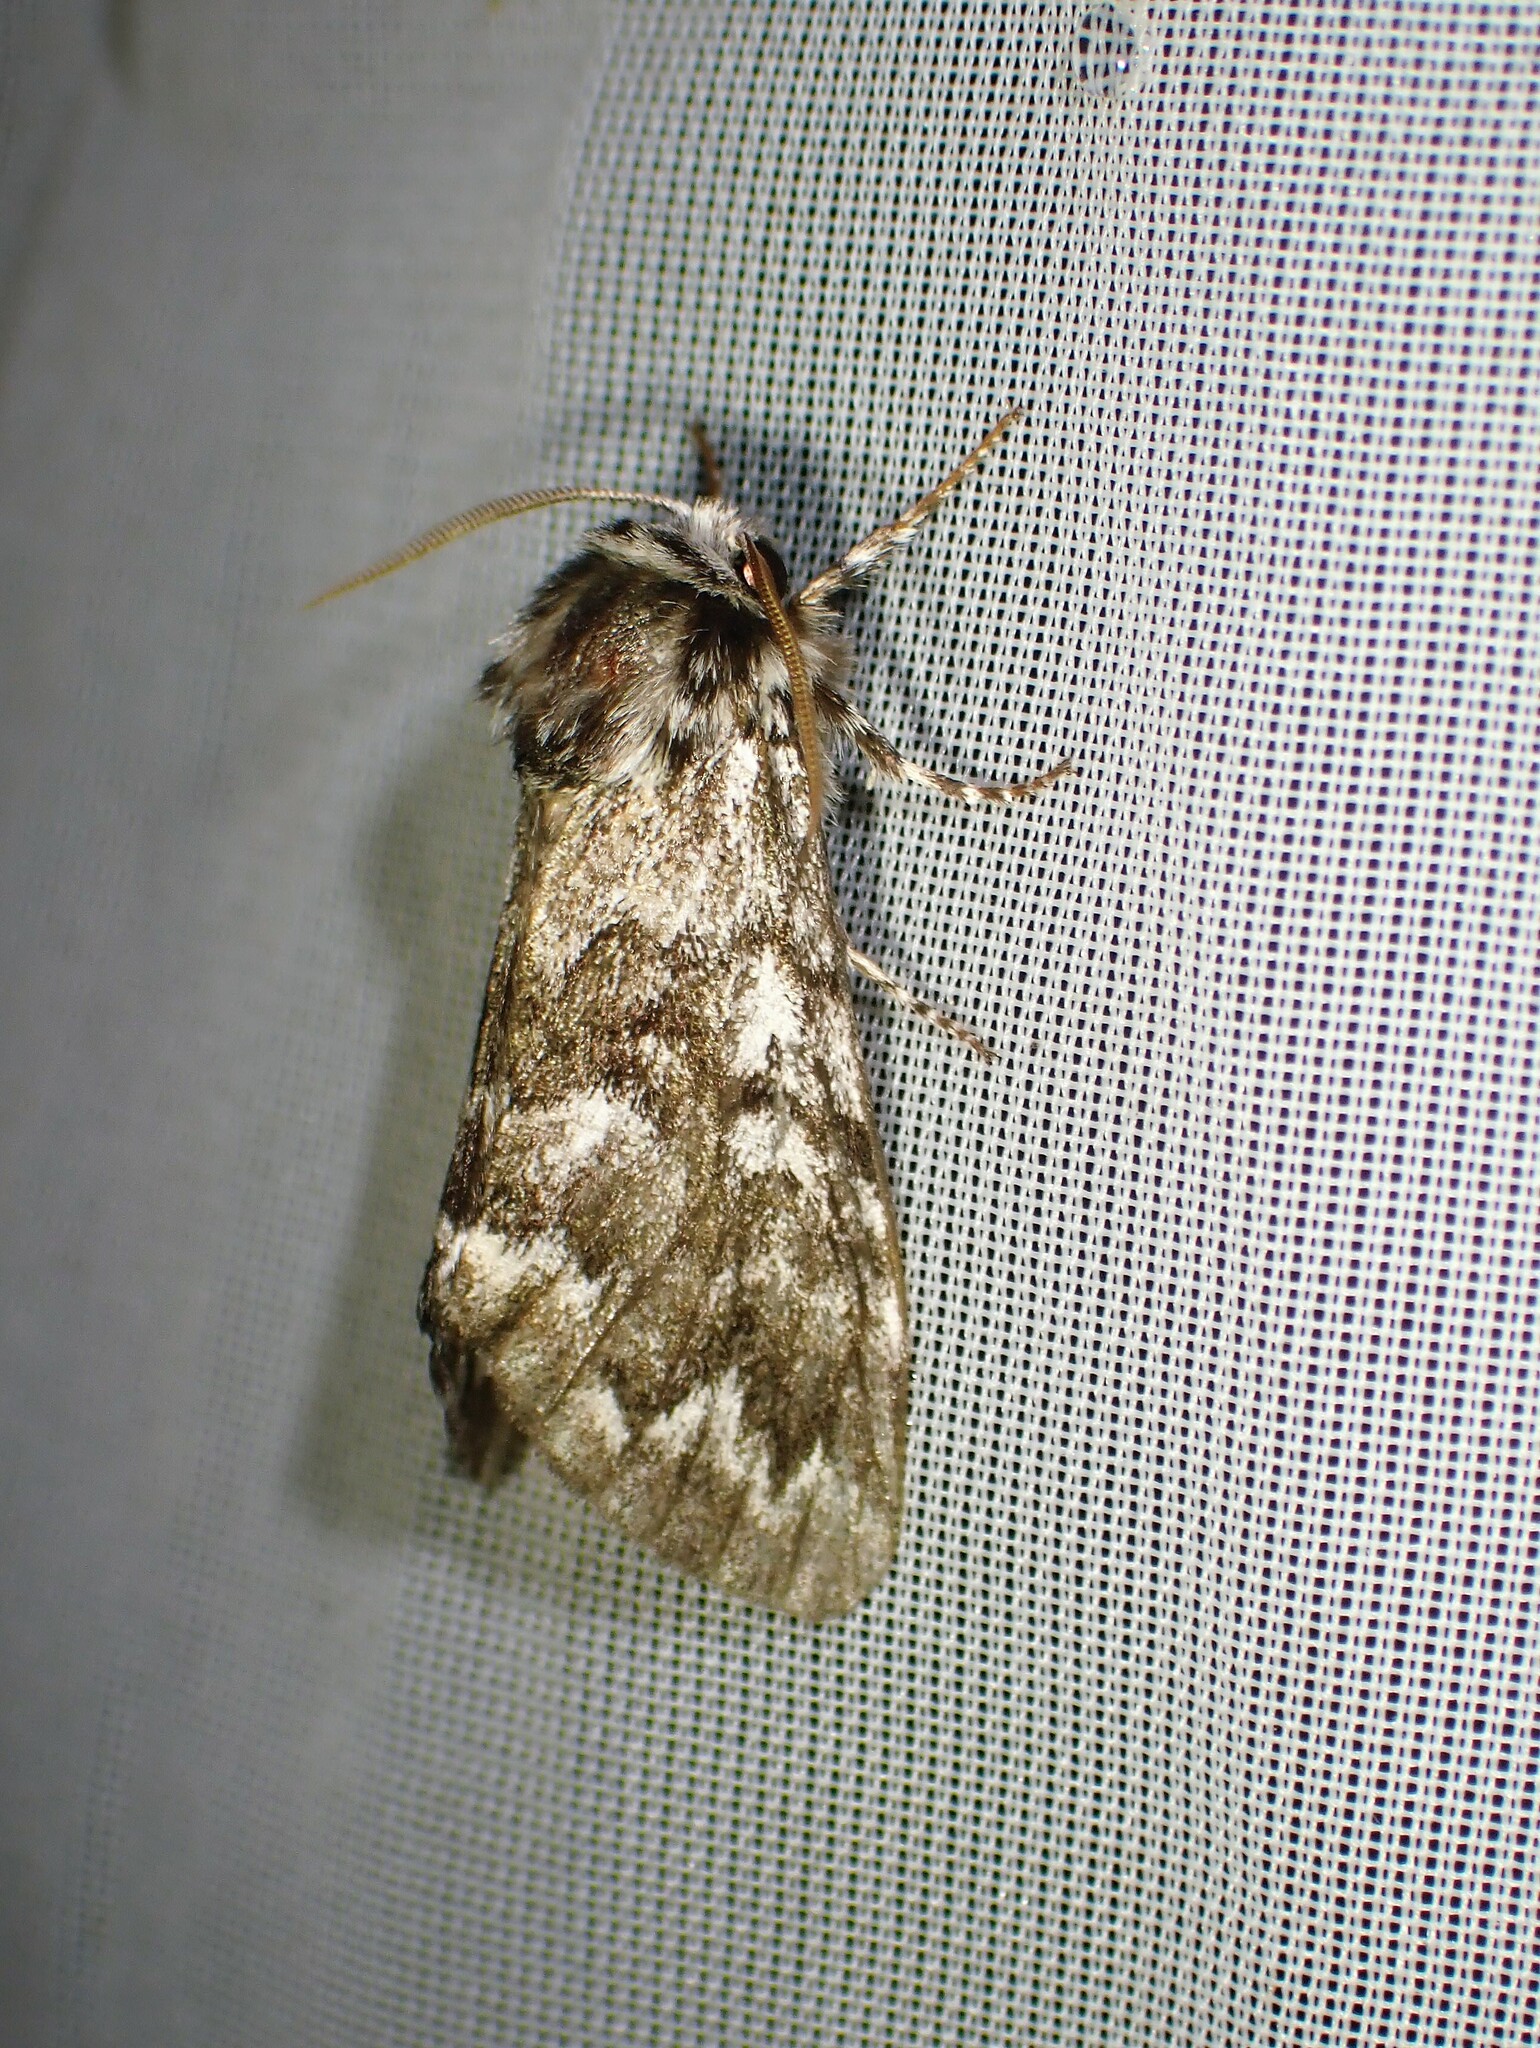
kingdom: Animalia
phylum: Arthropoda
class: Insecta
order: Lepidoptera
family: Noctuidae
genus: Panthea
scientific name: Panthea acronyctoides
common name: Black zigzag moth
